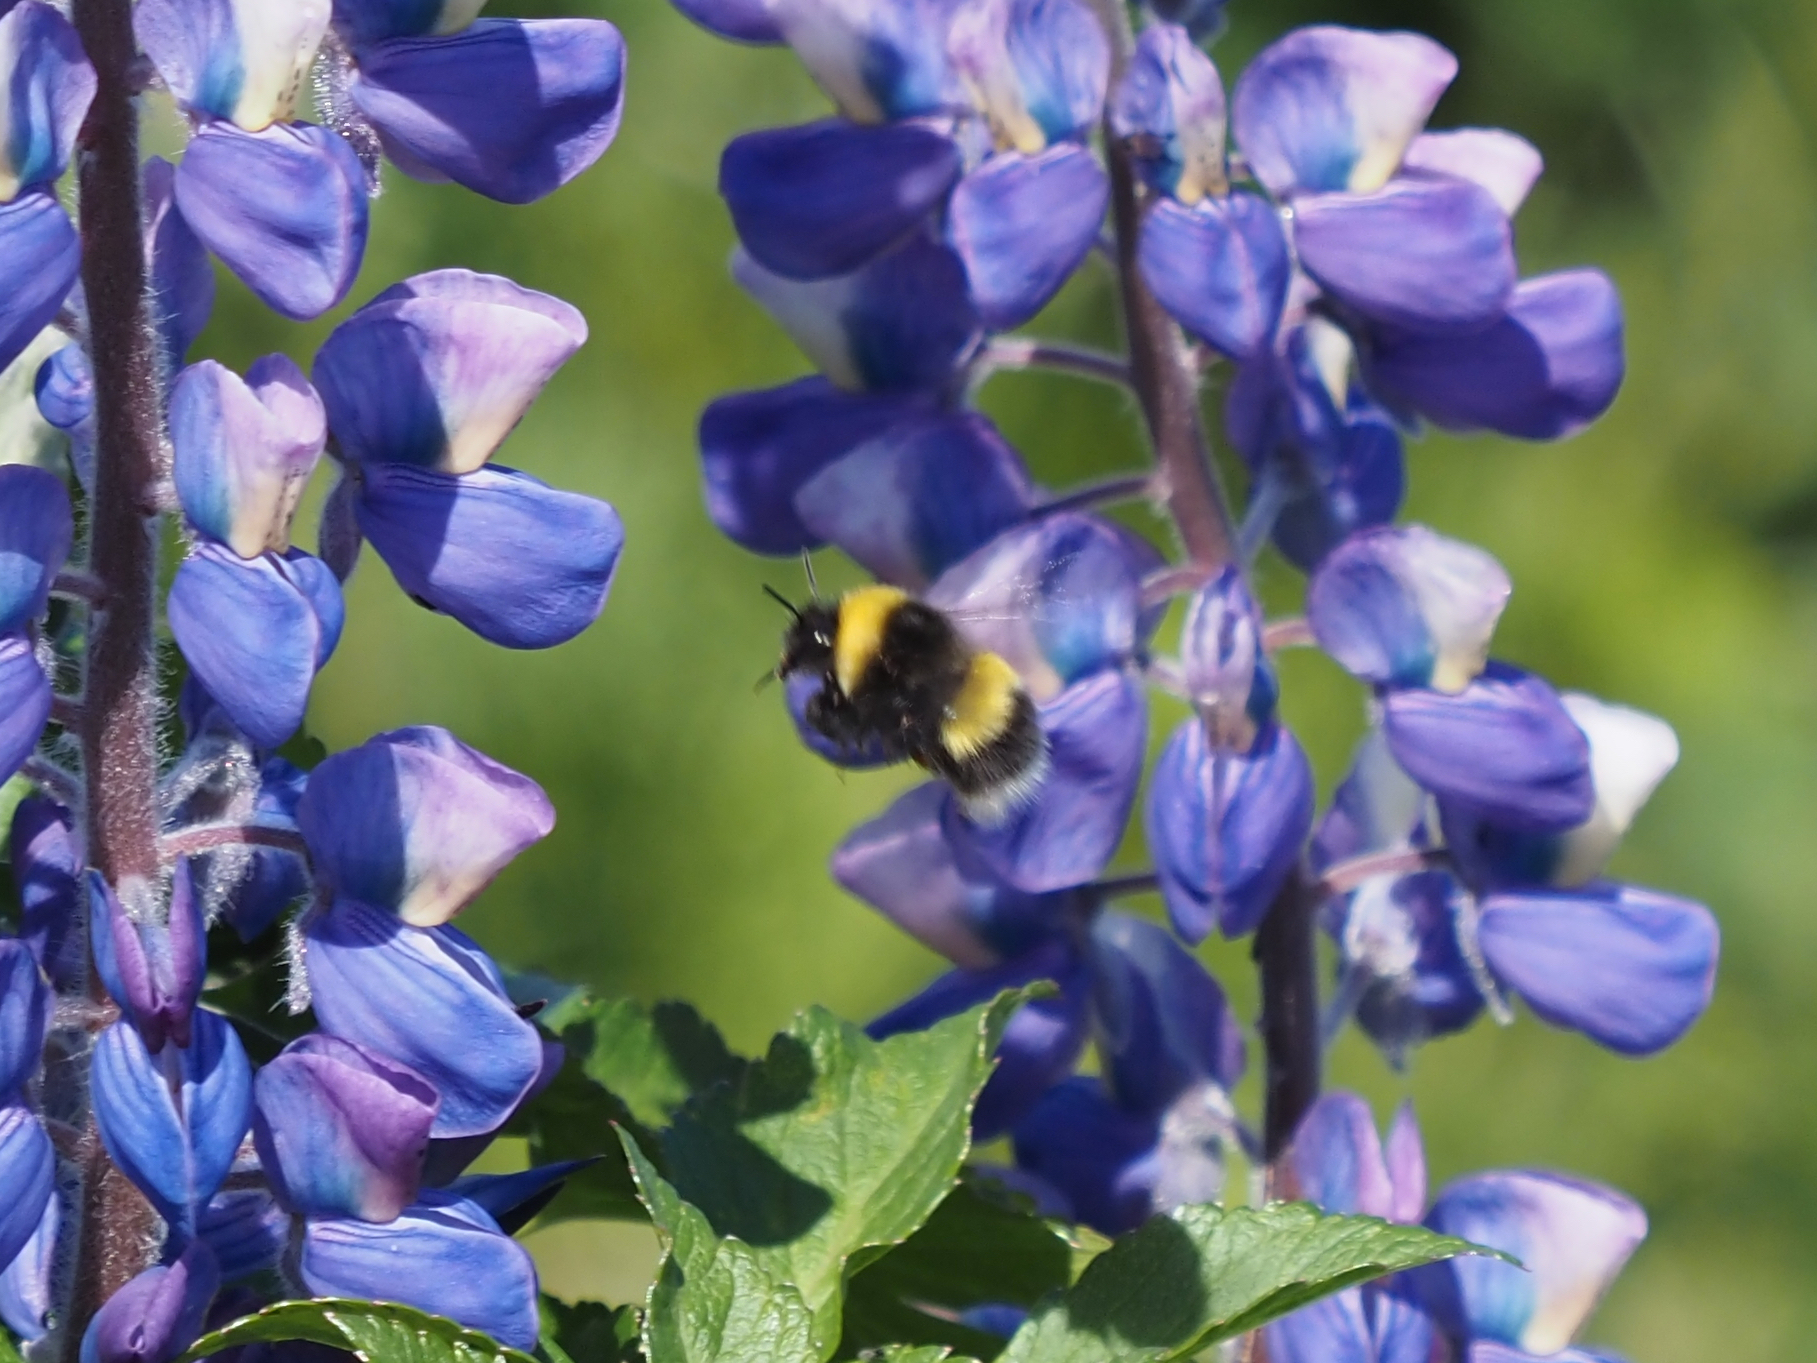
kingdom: Animalia
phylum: Arthropoda
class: Insecta
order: Hymenoptera
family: Apidae
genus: Bombus
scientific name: Bombus cryptarum
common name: Cryptic bumblebee
